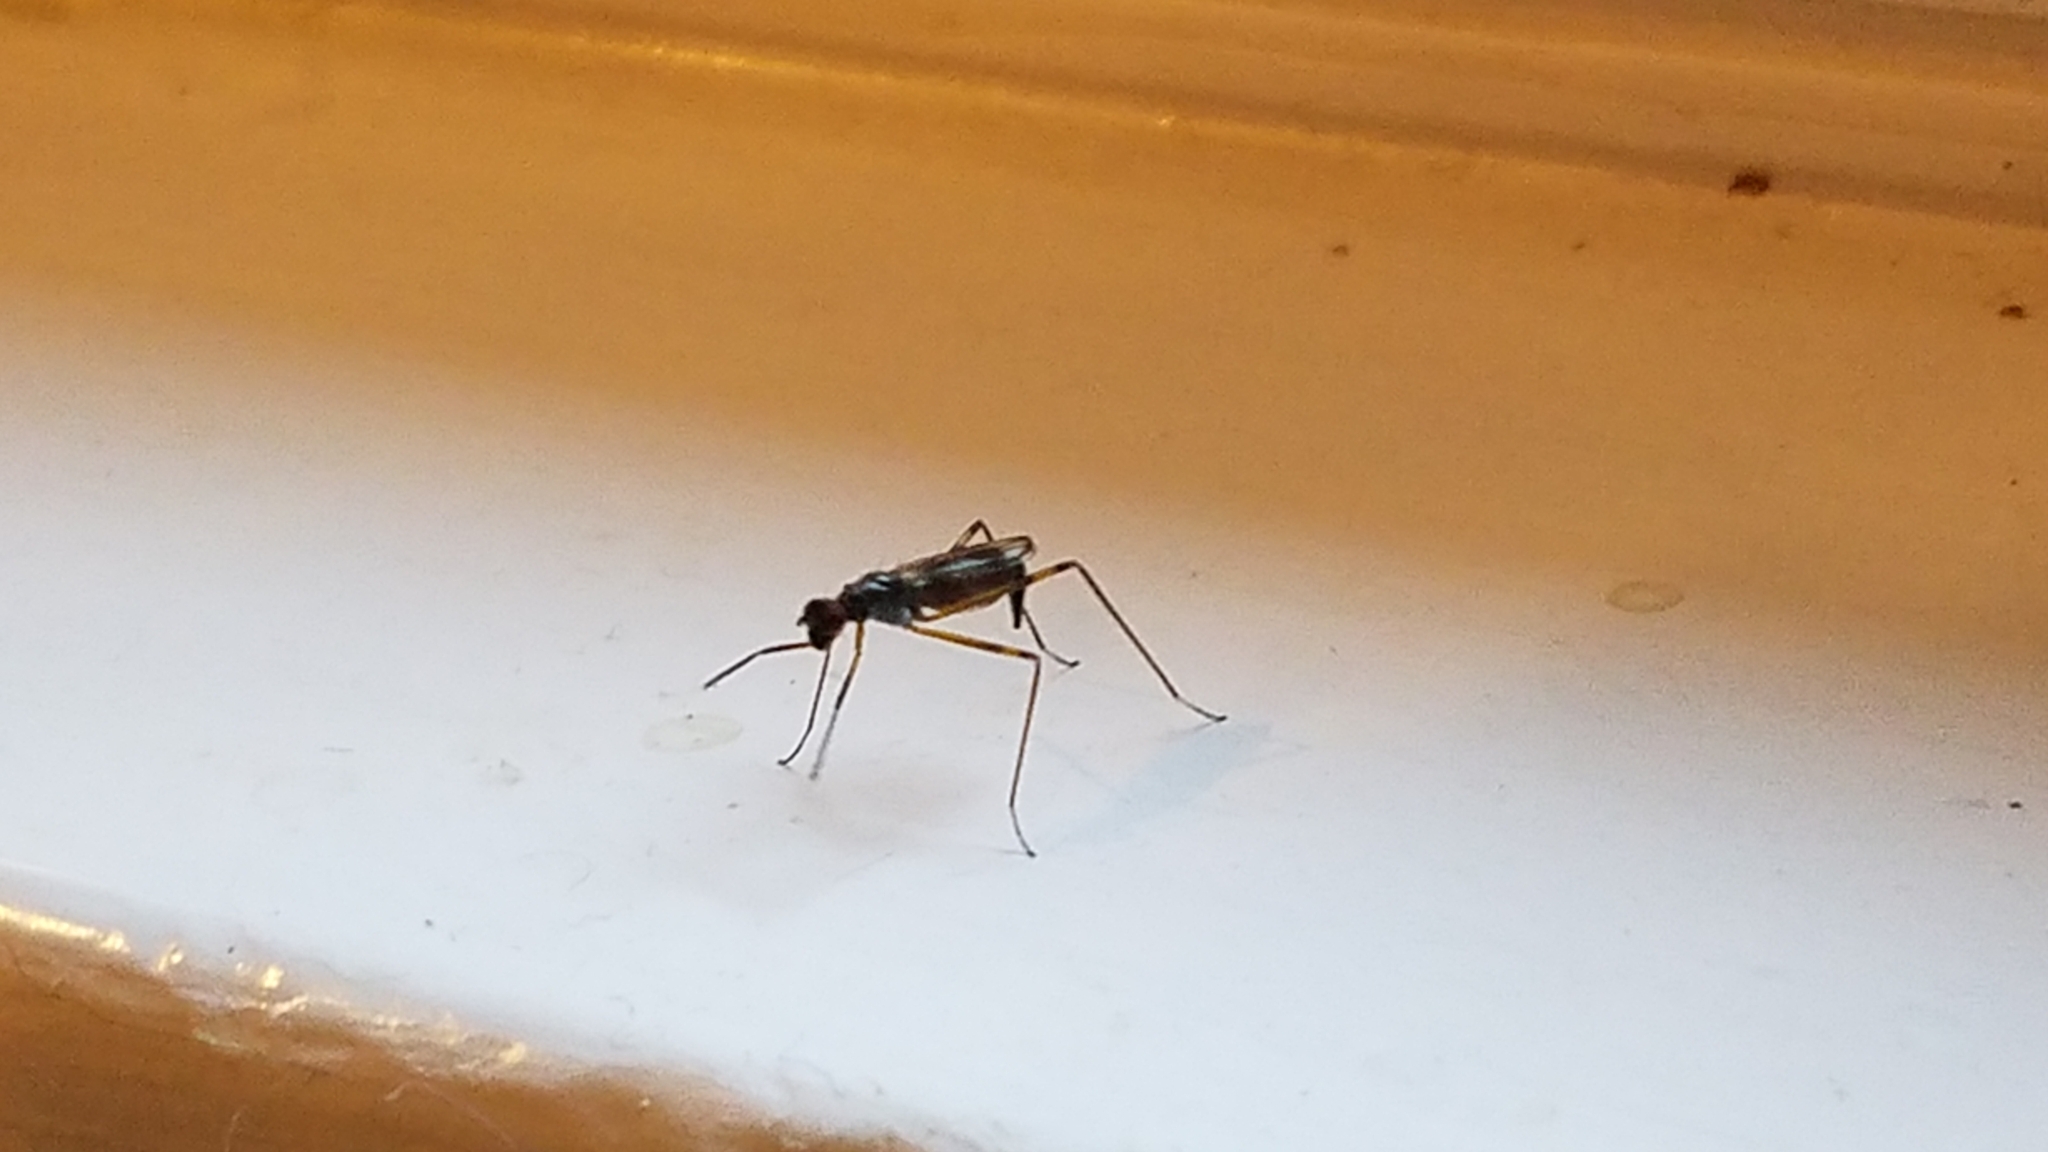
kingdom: Animalia
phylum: Arthropoda
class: Insecta
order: Diptera
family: Micropezidae
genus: Rainieria
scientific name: Rainieria antennaepes
